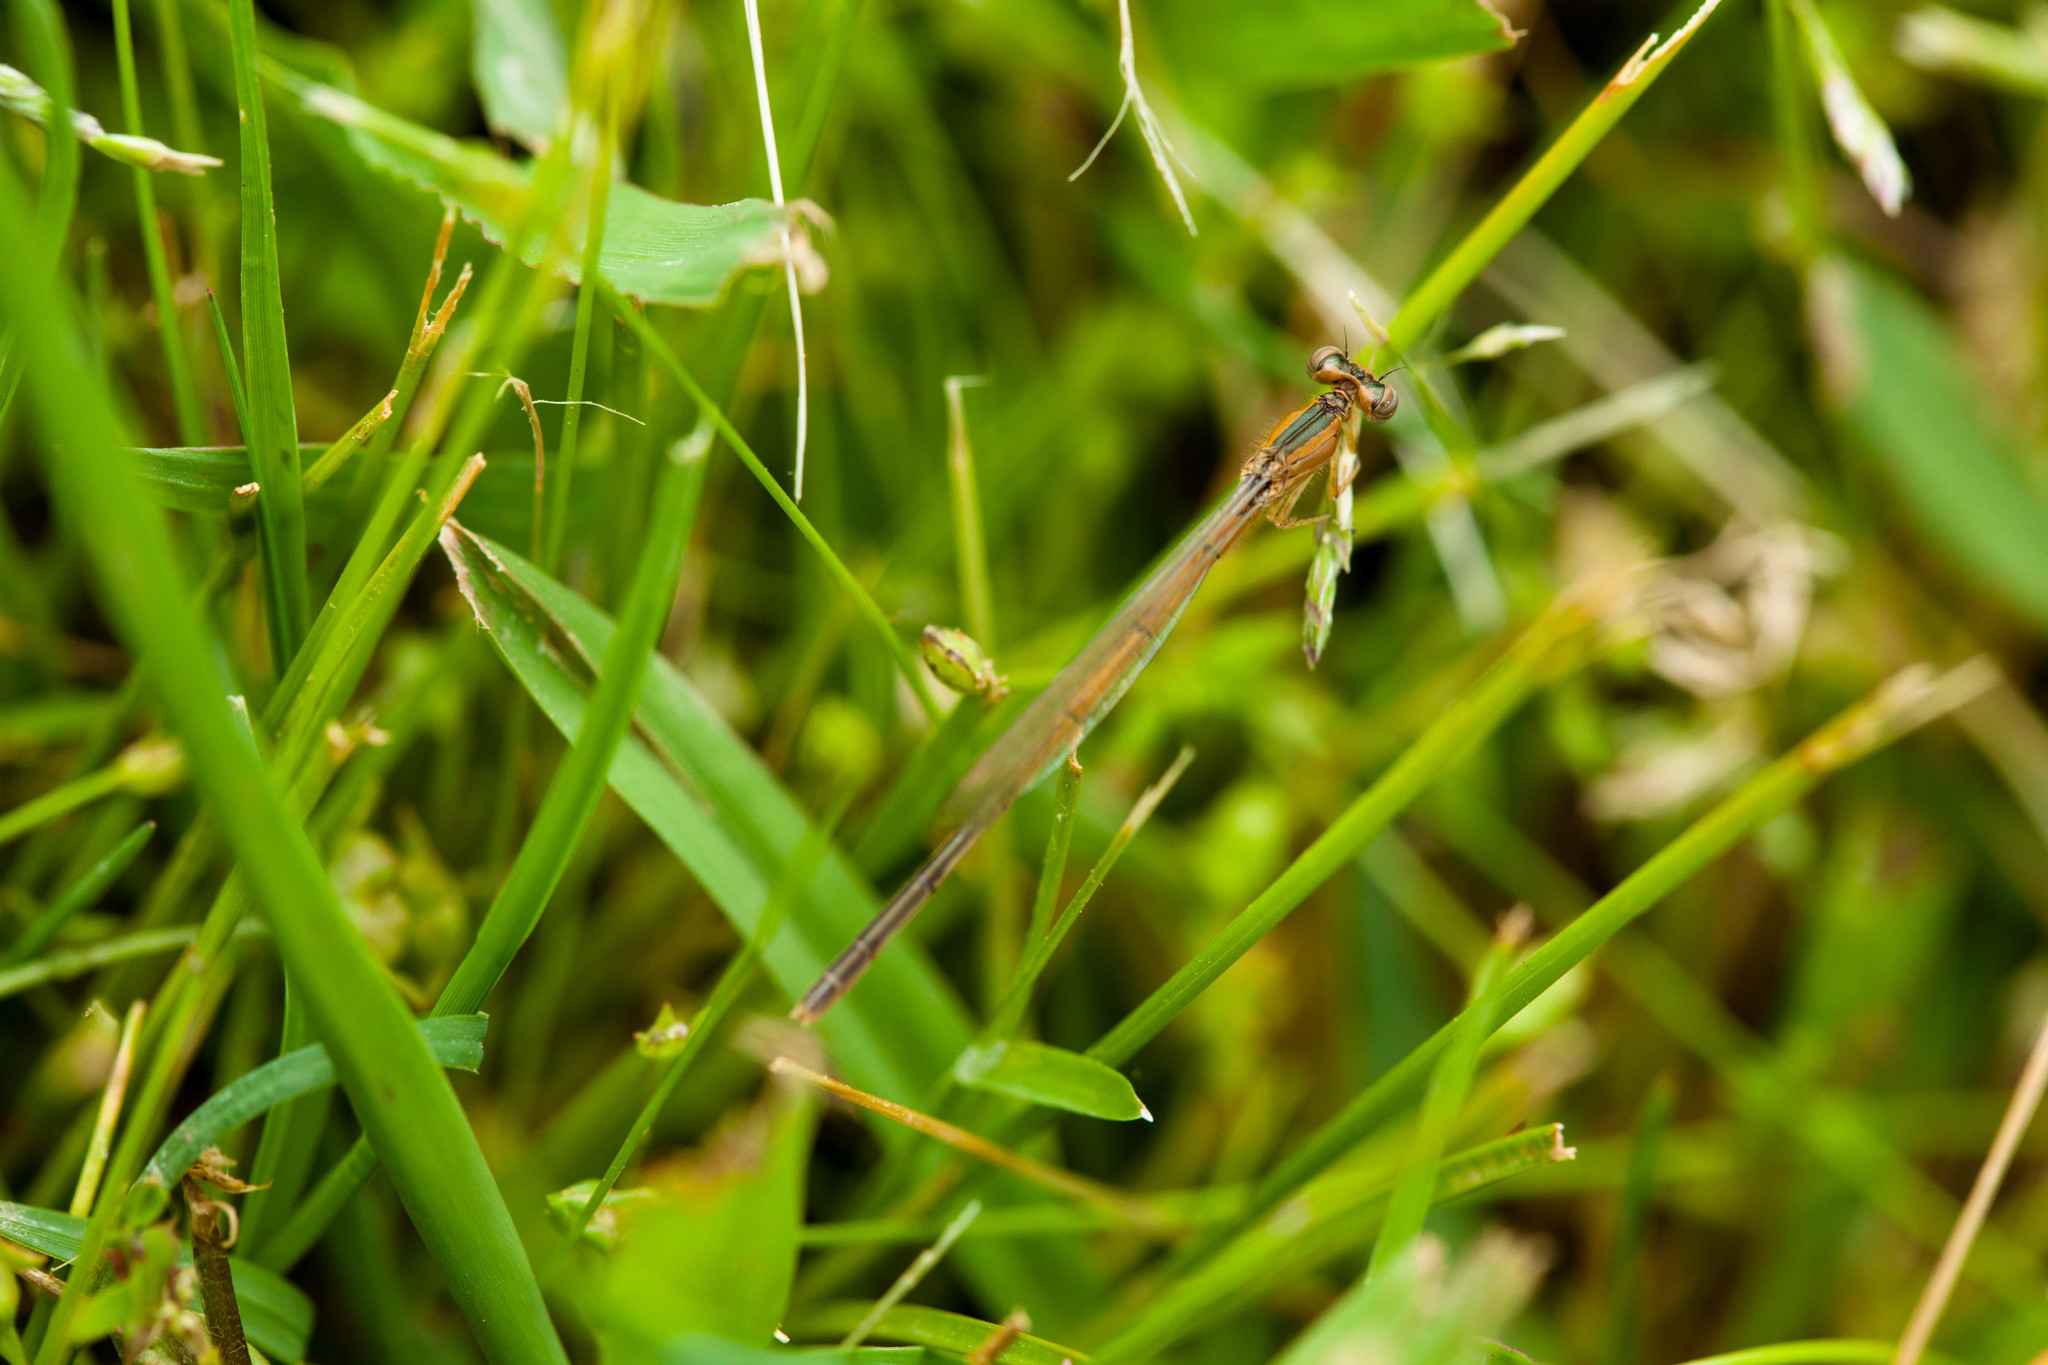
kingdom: Animalia
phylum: Arthropoda
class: Insecta
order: Odonata
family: Coenagrionidae
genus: Ischnura
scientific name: Ischnura hastata
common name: Citrine forktail
